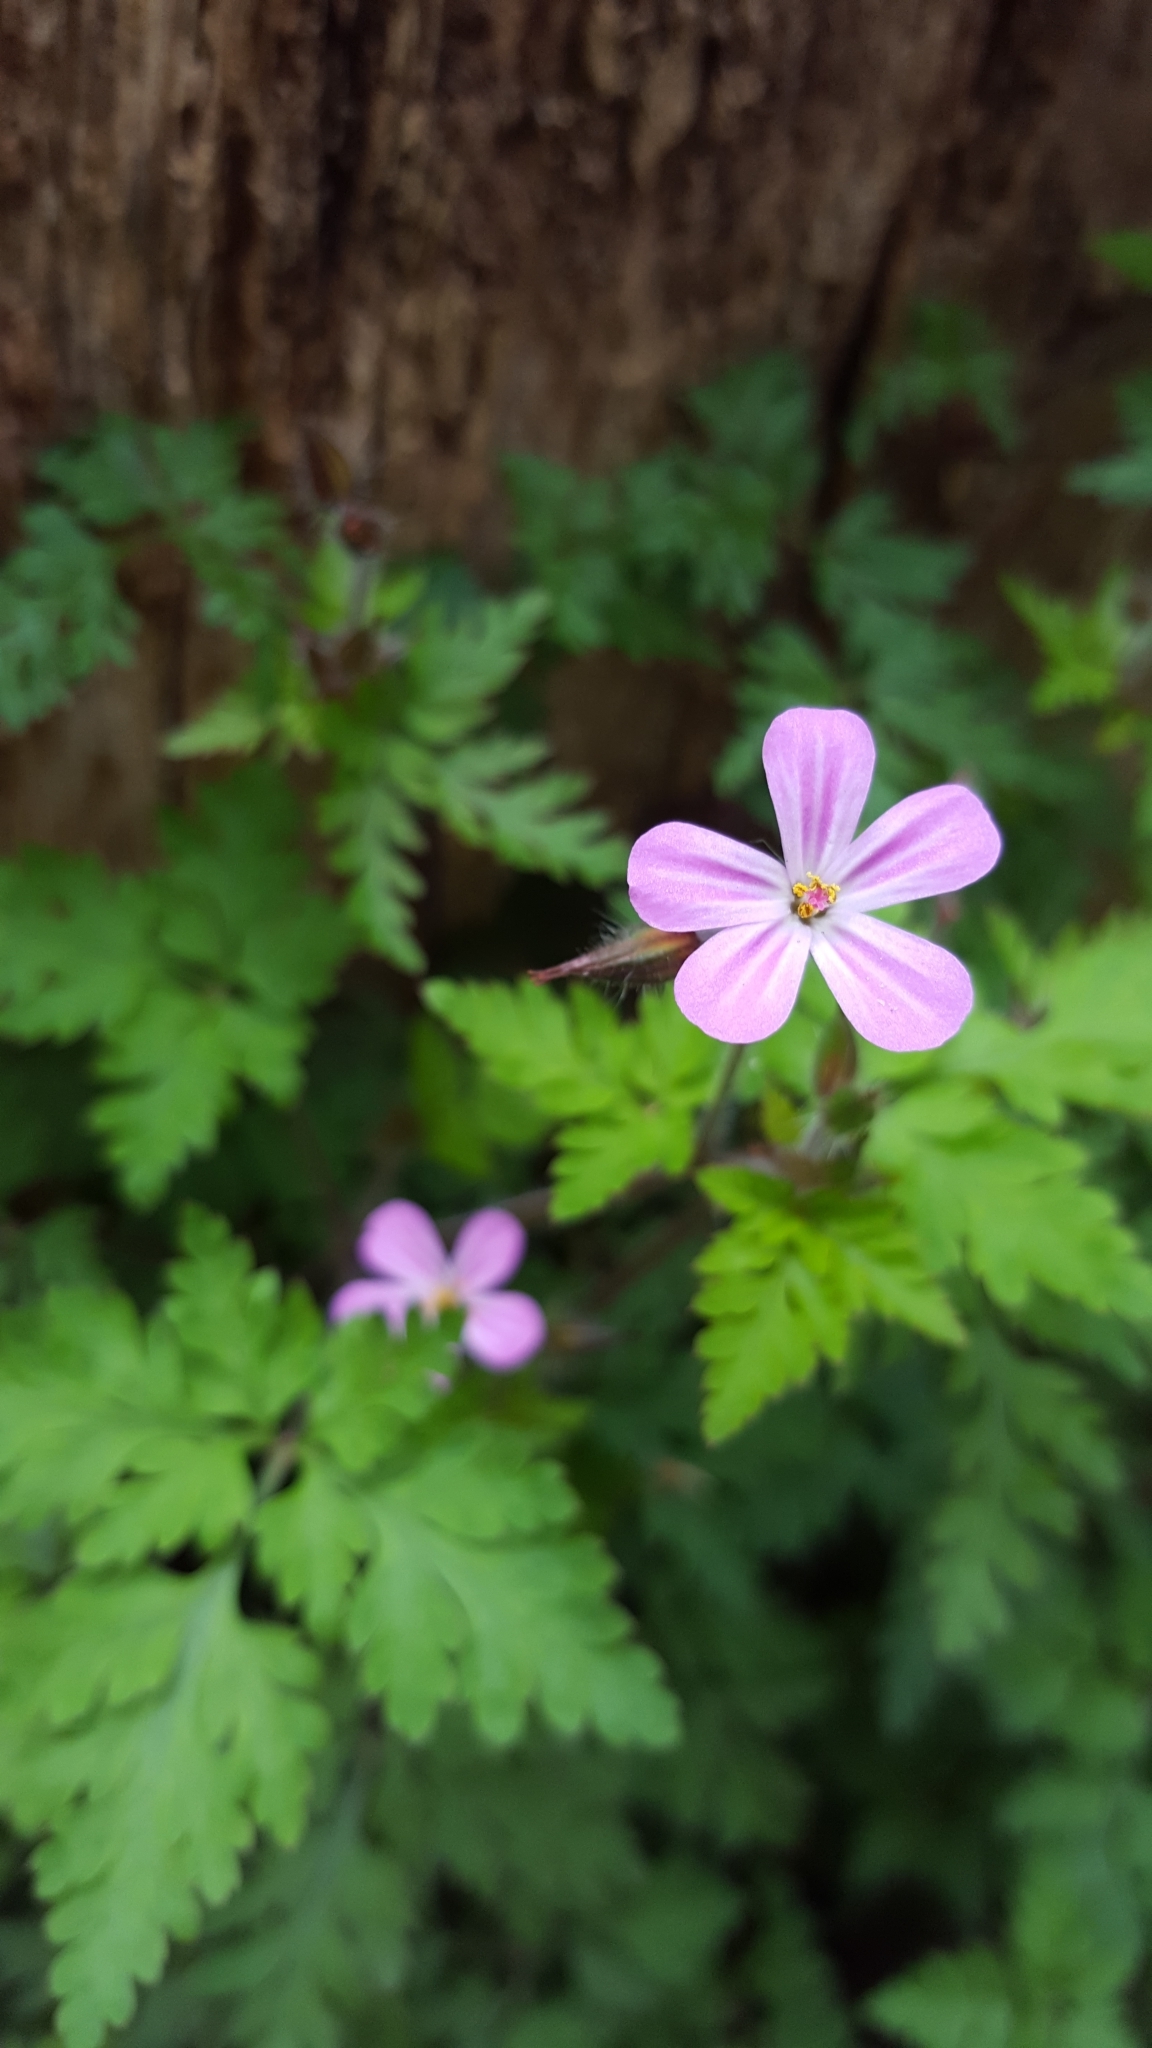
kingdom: Plantae
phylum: Tracheophyta
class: Magnoliopsida
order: Geraniales
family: Geraniaceae
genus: Geranium
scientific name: Geranium robertianum
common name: Herb-robert
